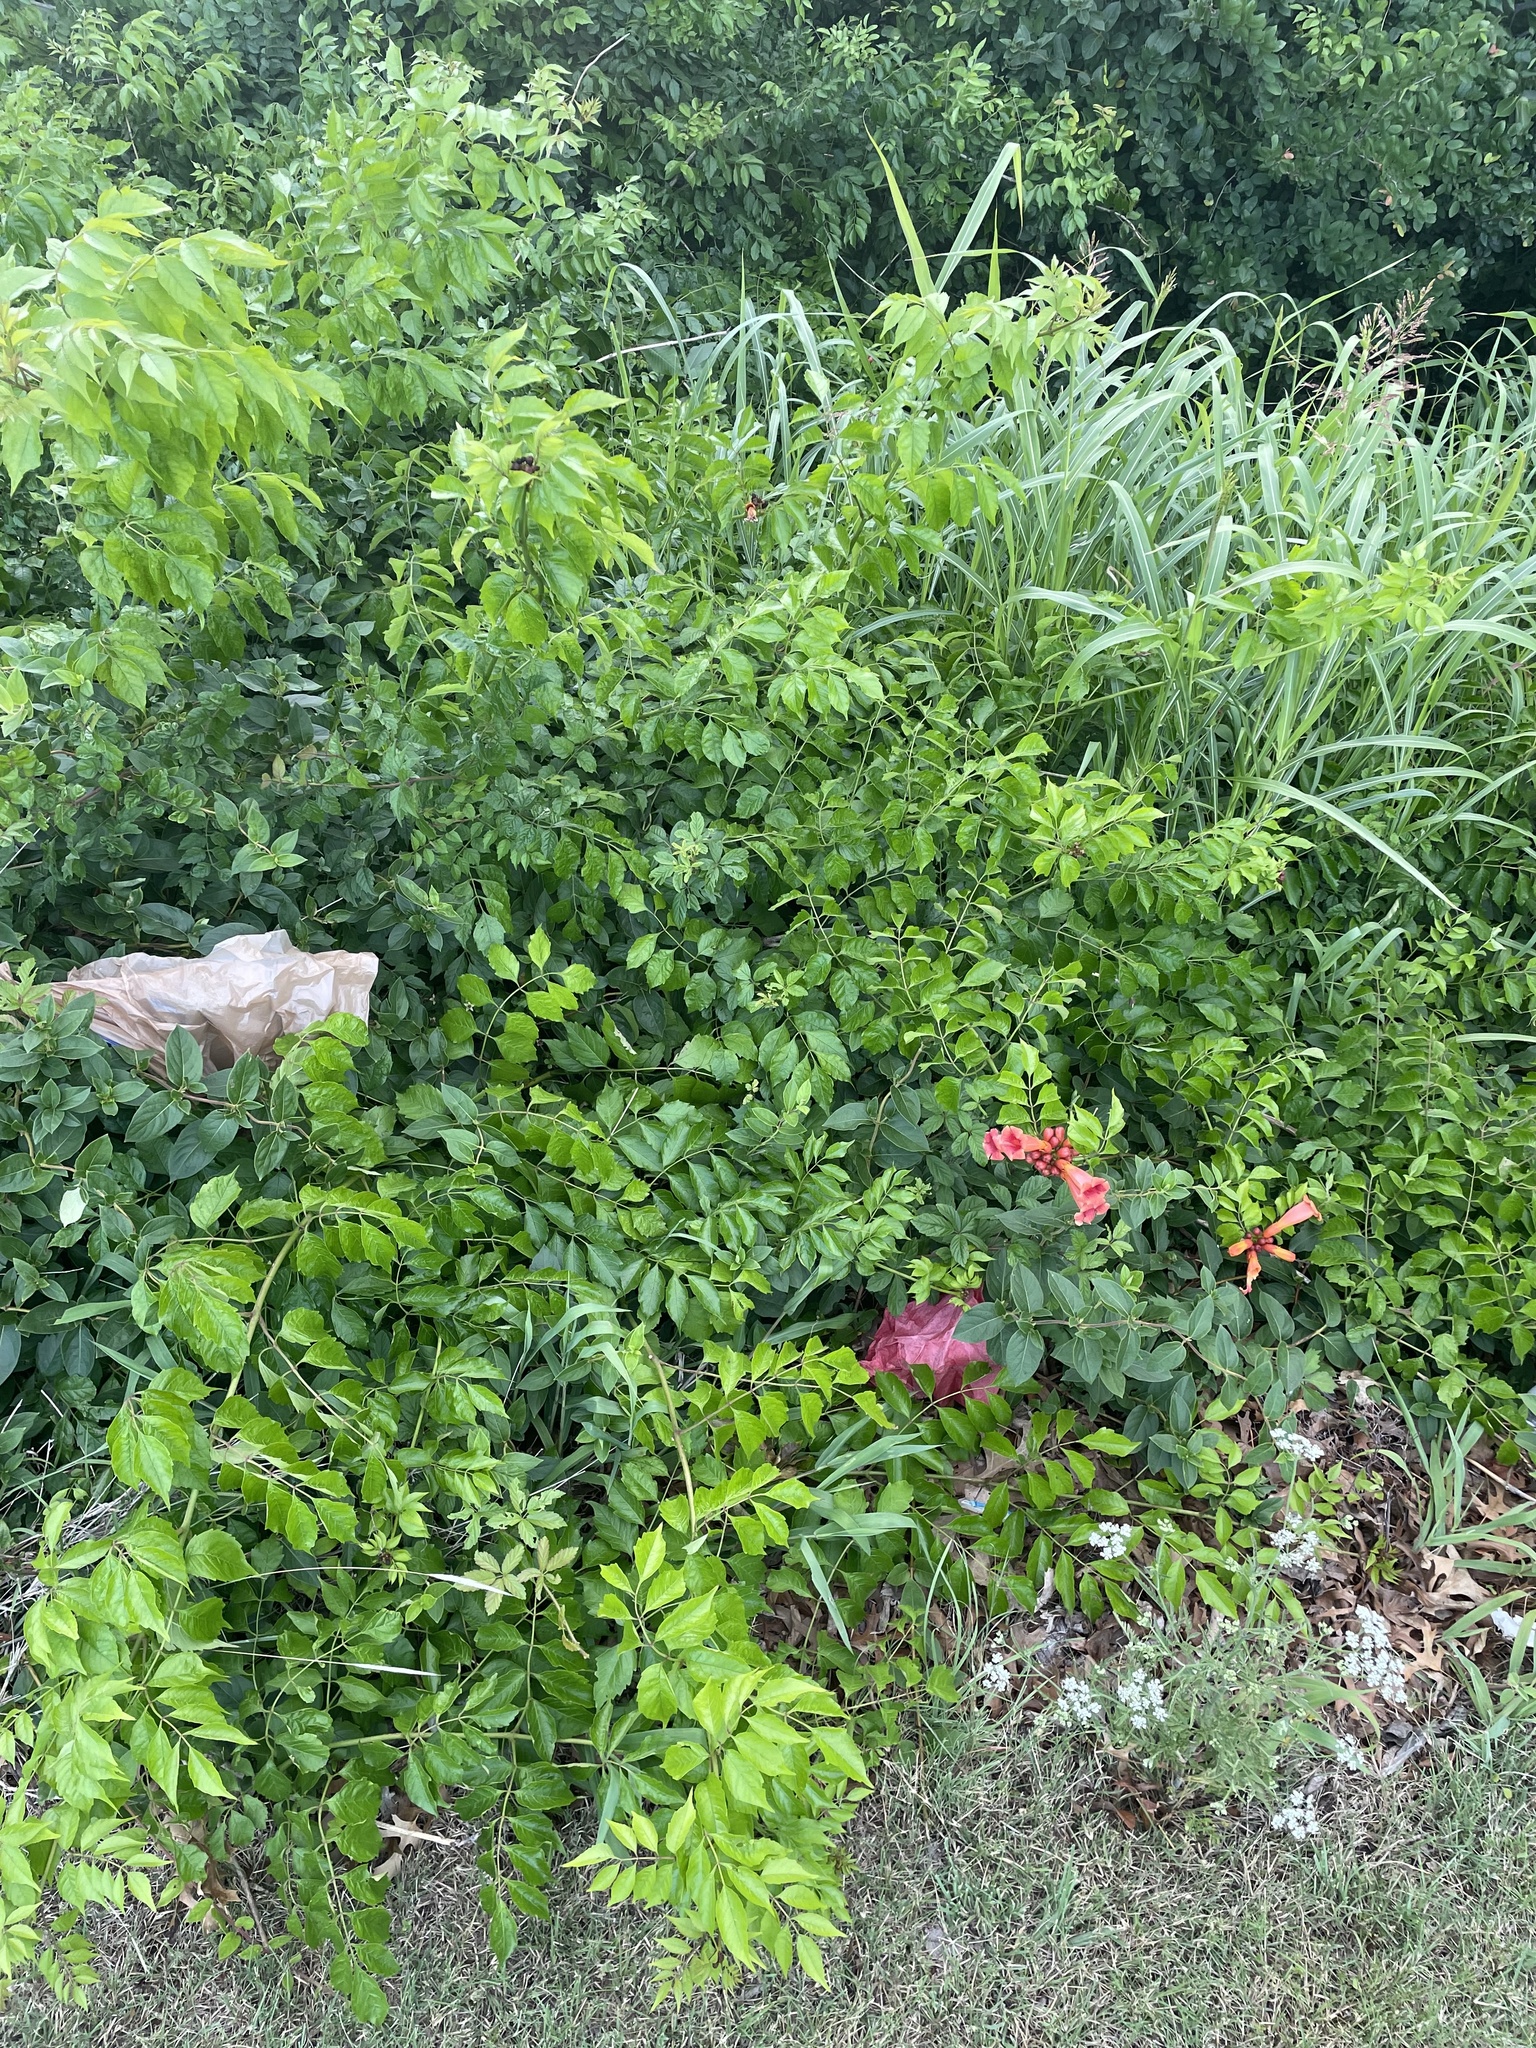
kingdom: Plantae
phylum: Tracheophyta
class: Magnoliopsida
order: Lamiales
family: Bignoniaceae
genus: Campsis
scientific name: Campsis radicans
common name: Trumpet-creeper
